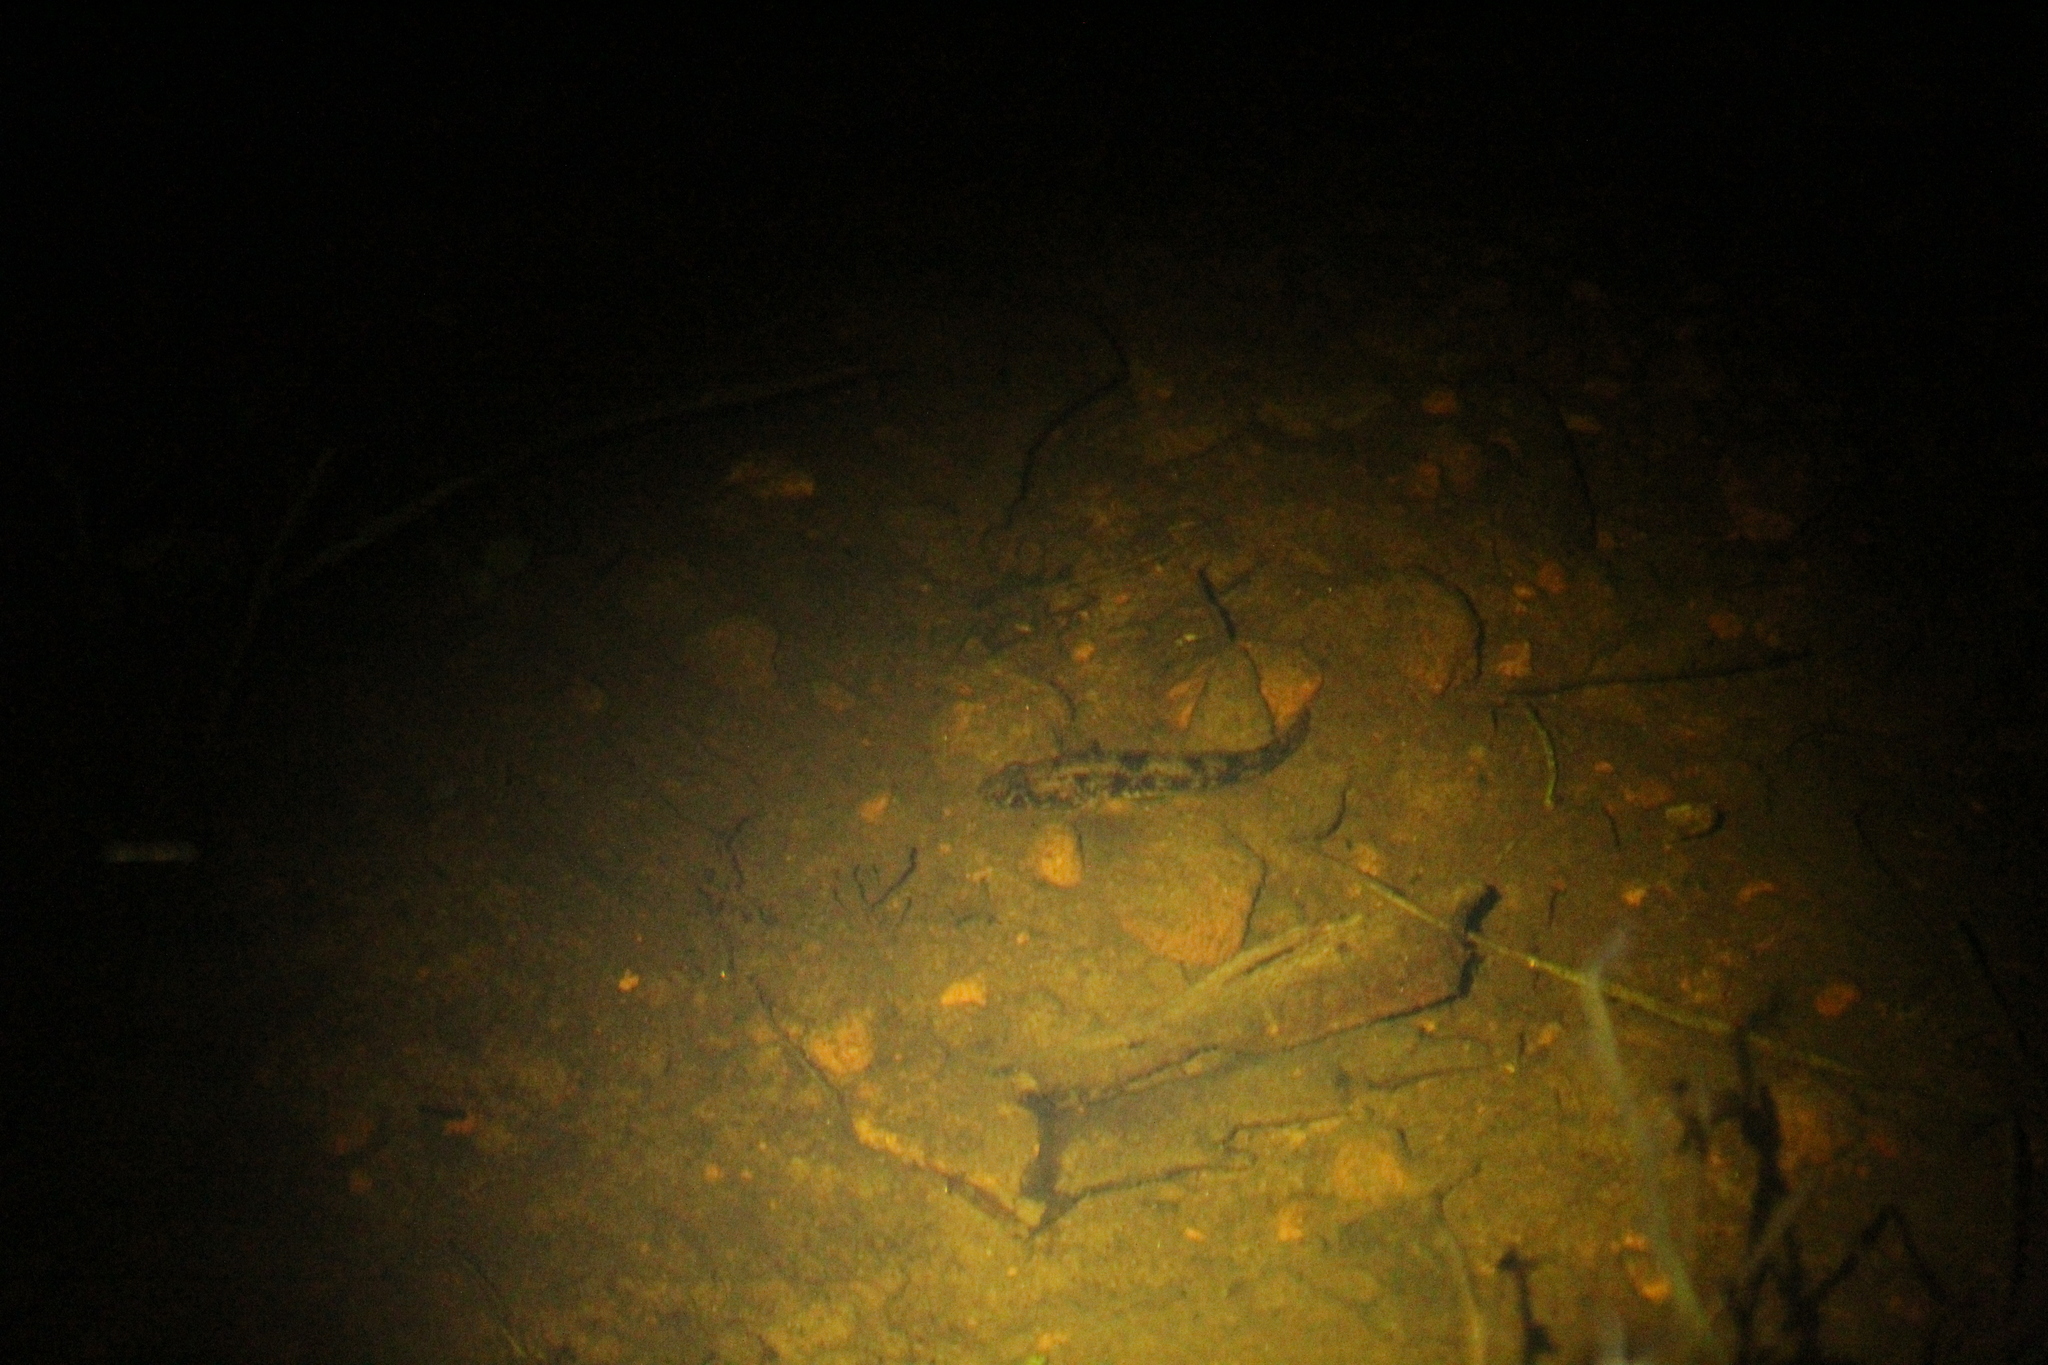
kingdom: Animalia
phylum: Chordata
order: Perciformes
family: Gobiidae
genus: Afurcagobius
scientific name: Afurcagobius suppositus
